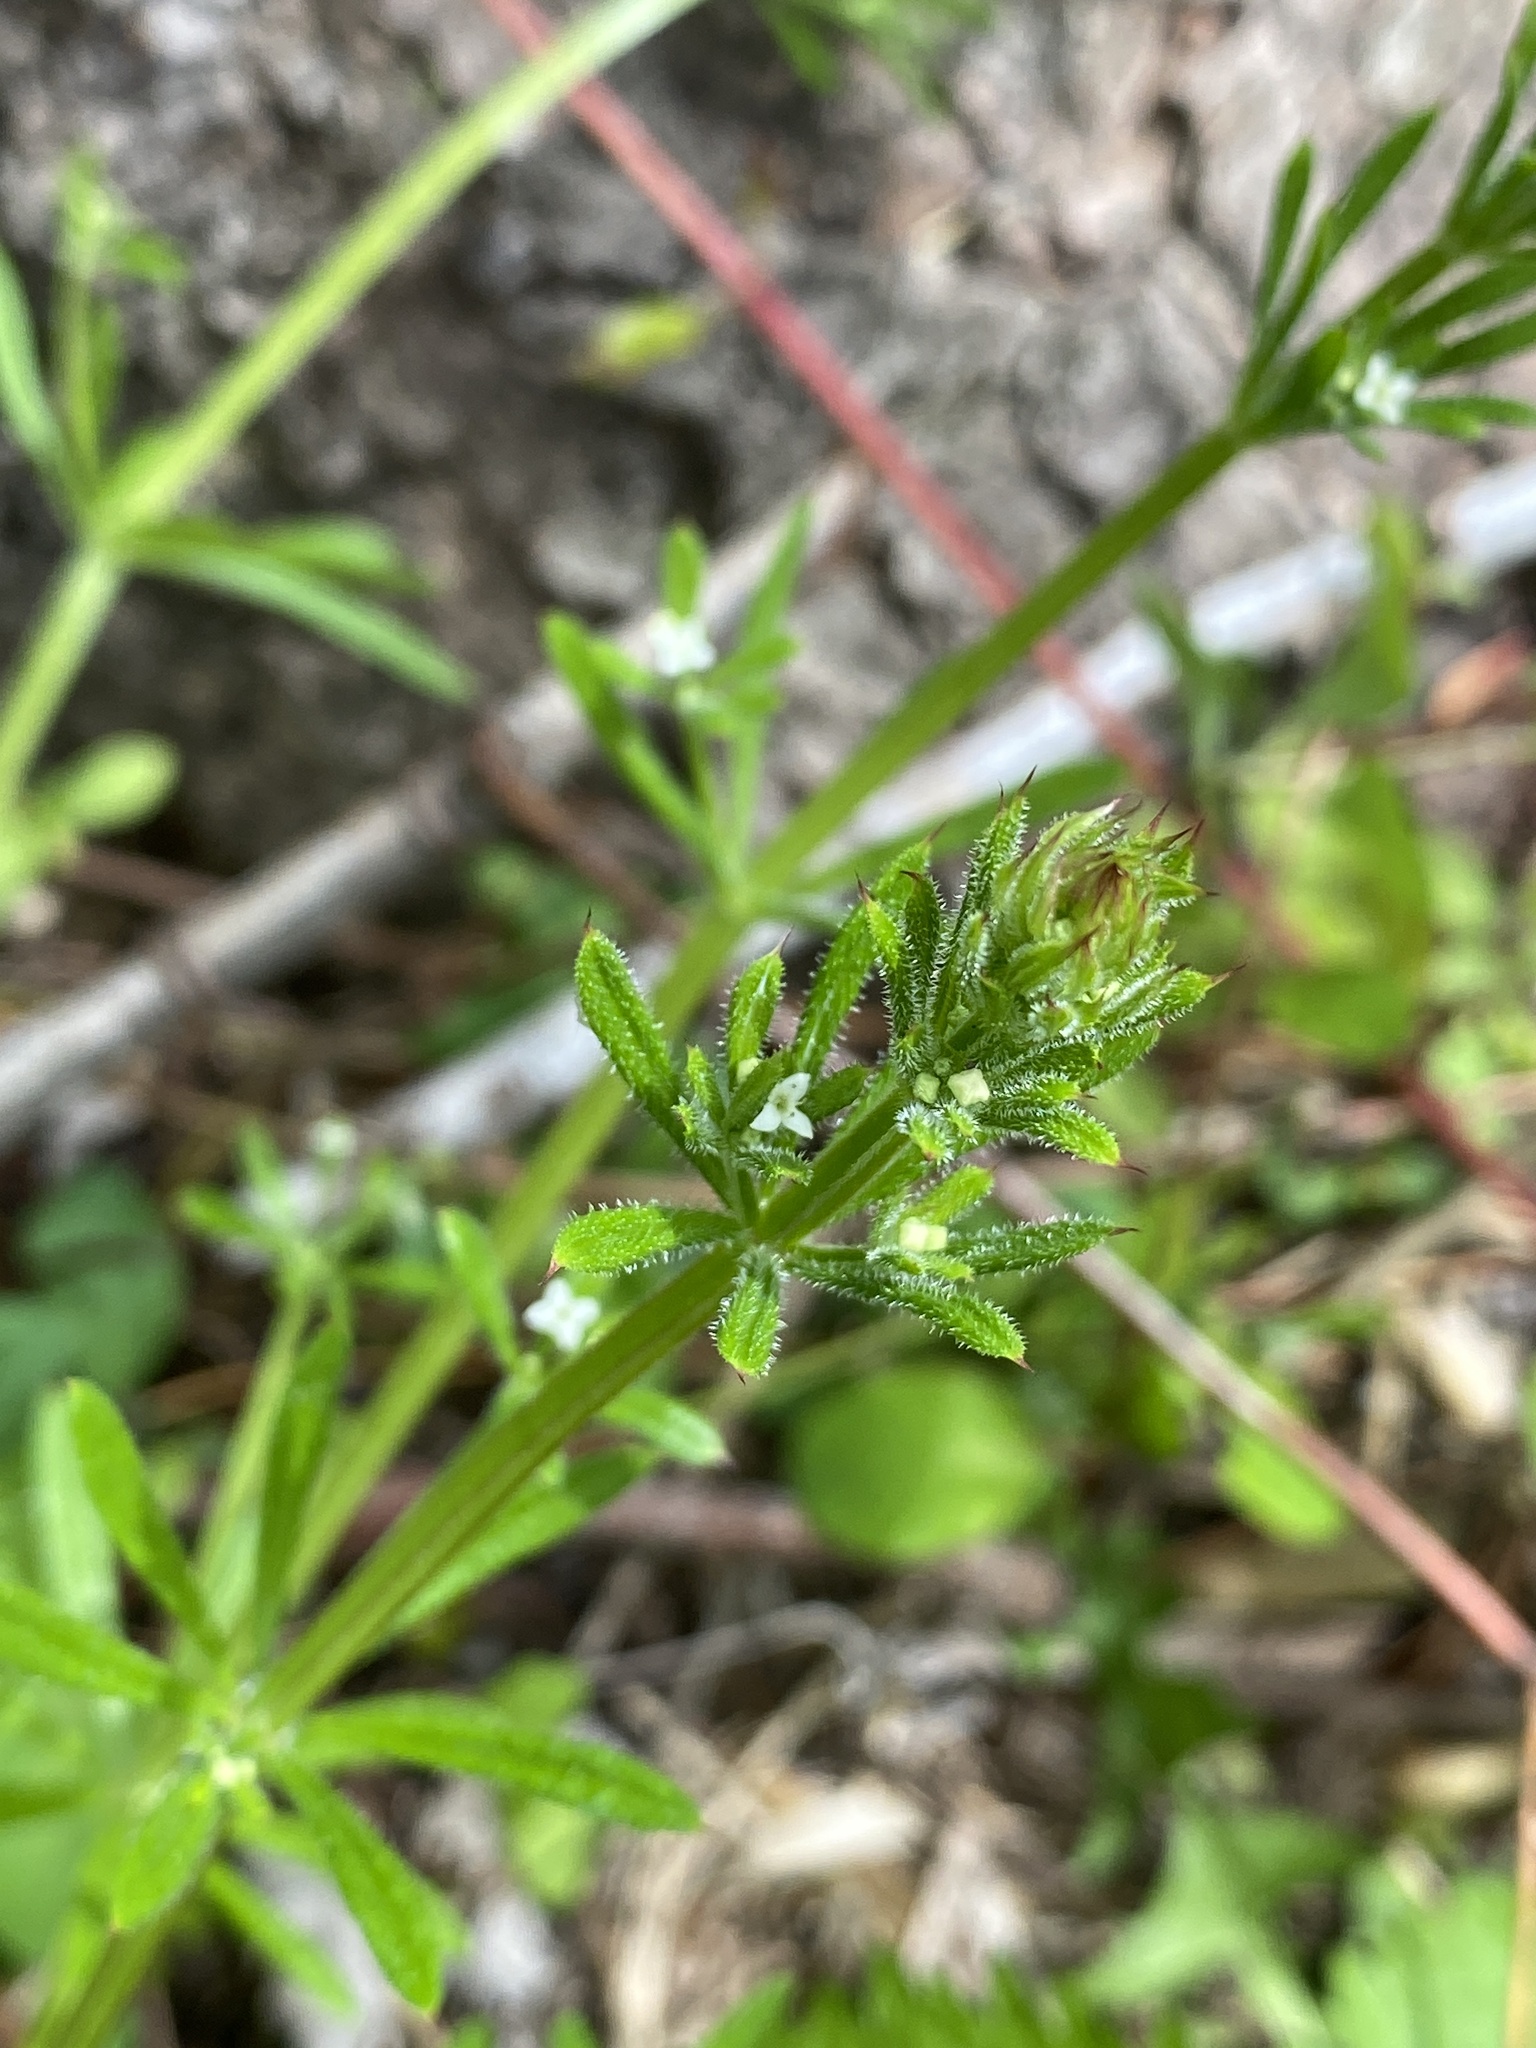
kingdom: Plantae
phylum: Tracheophyta
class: Magnoliopsida
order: Gentianales
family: Rubiaceae
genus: Galium
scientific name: Galium aparine
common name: Cleavers
